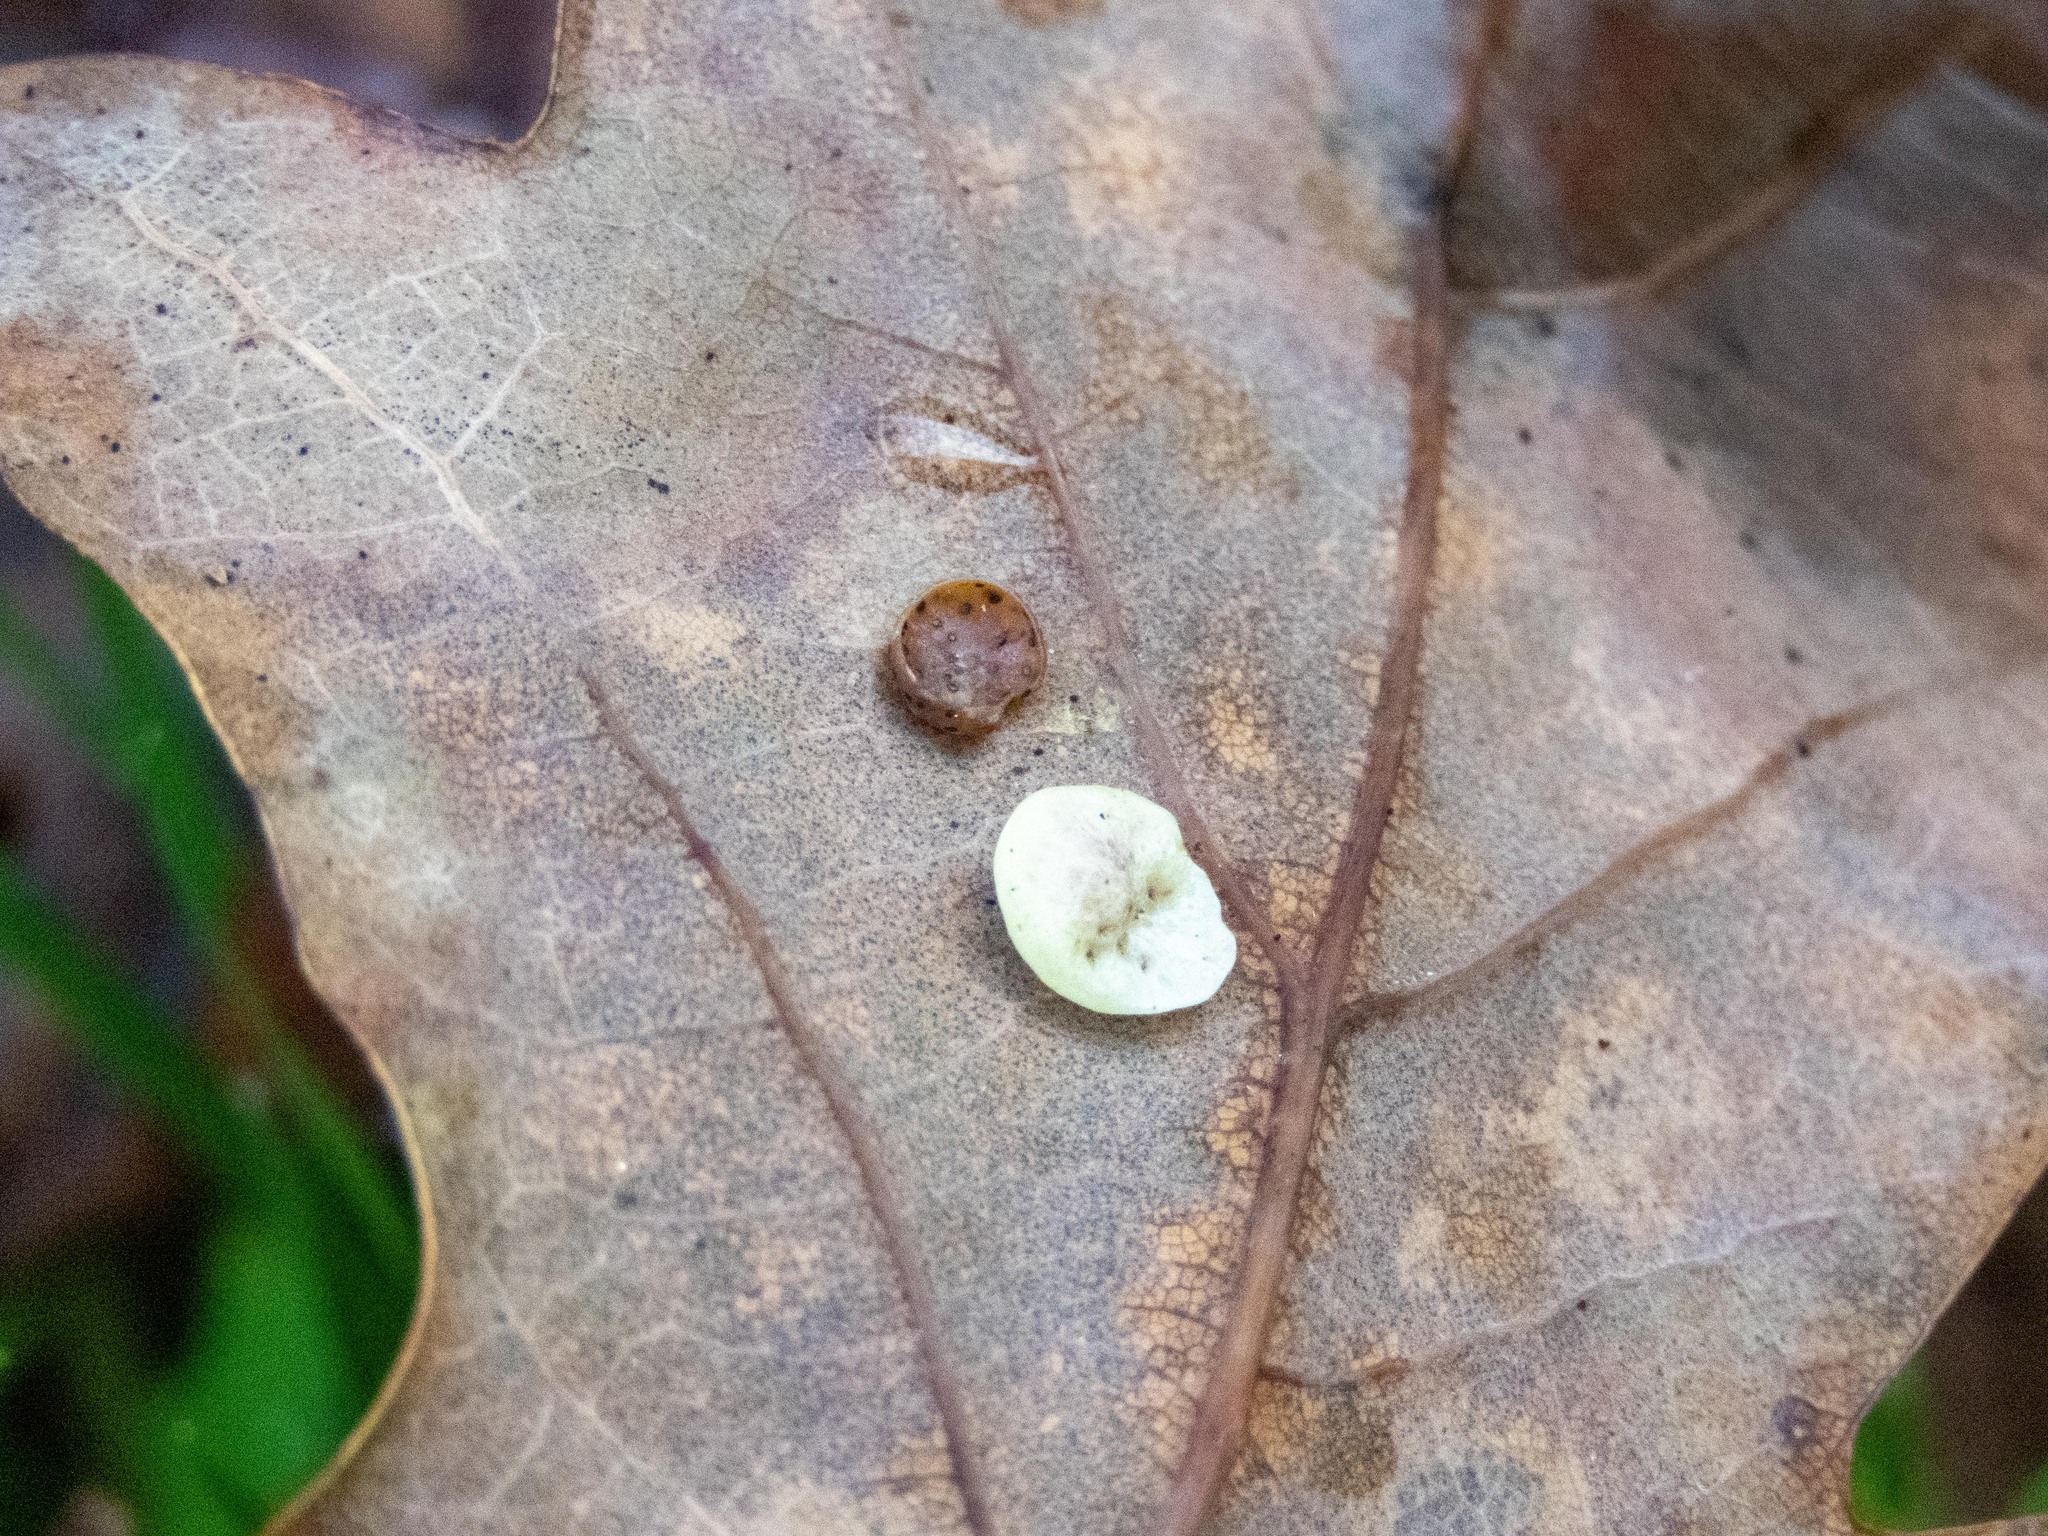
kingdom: Animalia
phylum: Arthropoda
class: Insecta
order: Hymenoptera
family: Cynipidae
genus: Neuroterus
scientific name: Neuroterus albipes
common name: Smooth spangle gall
